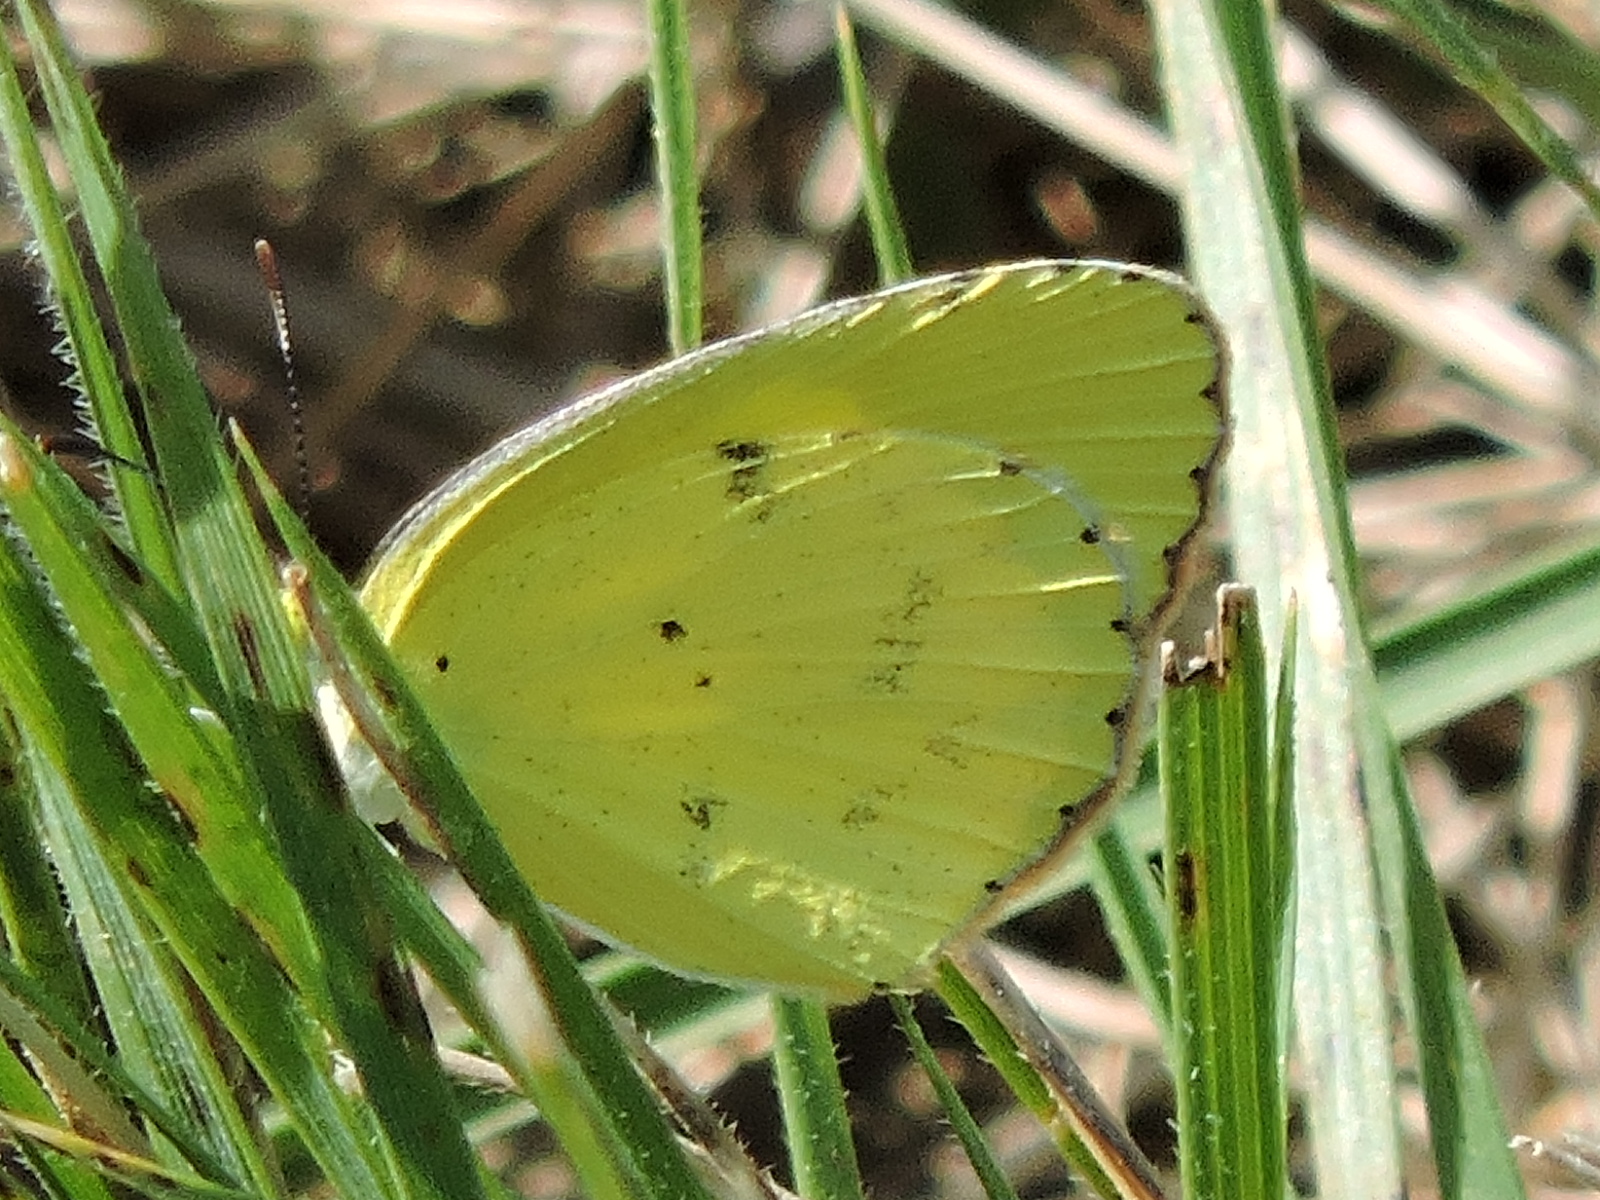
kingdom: Animalia
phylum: Arthropoda
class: Insecta
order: Lepidoptera
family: Pieridae
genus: Pyrisitia
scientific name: Pyrisitia lisa
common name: Little yellow
